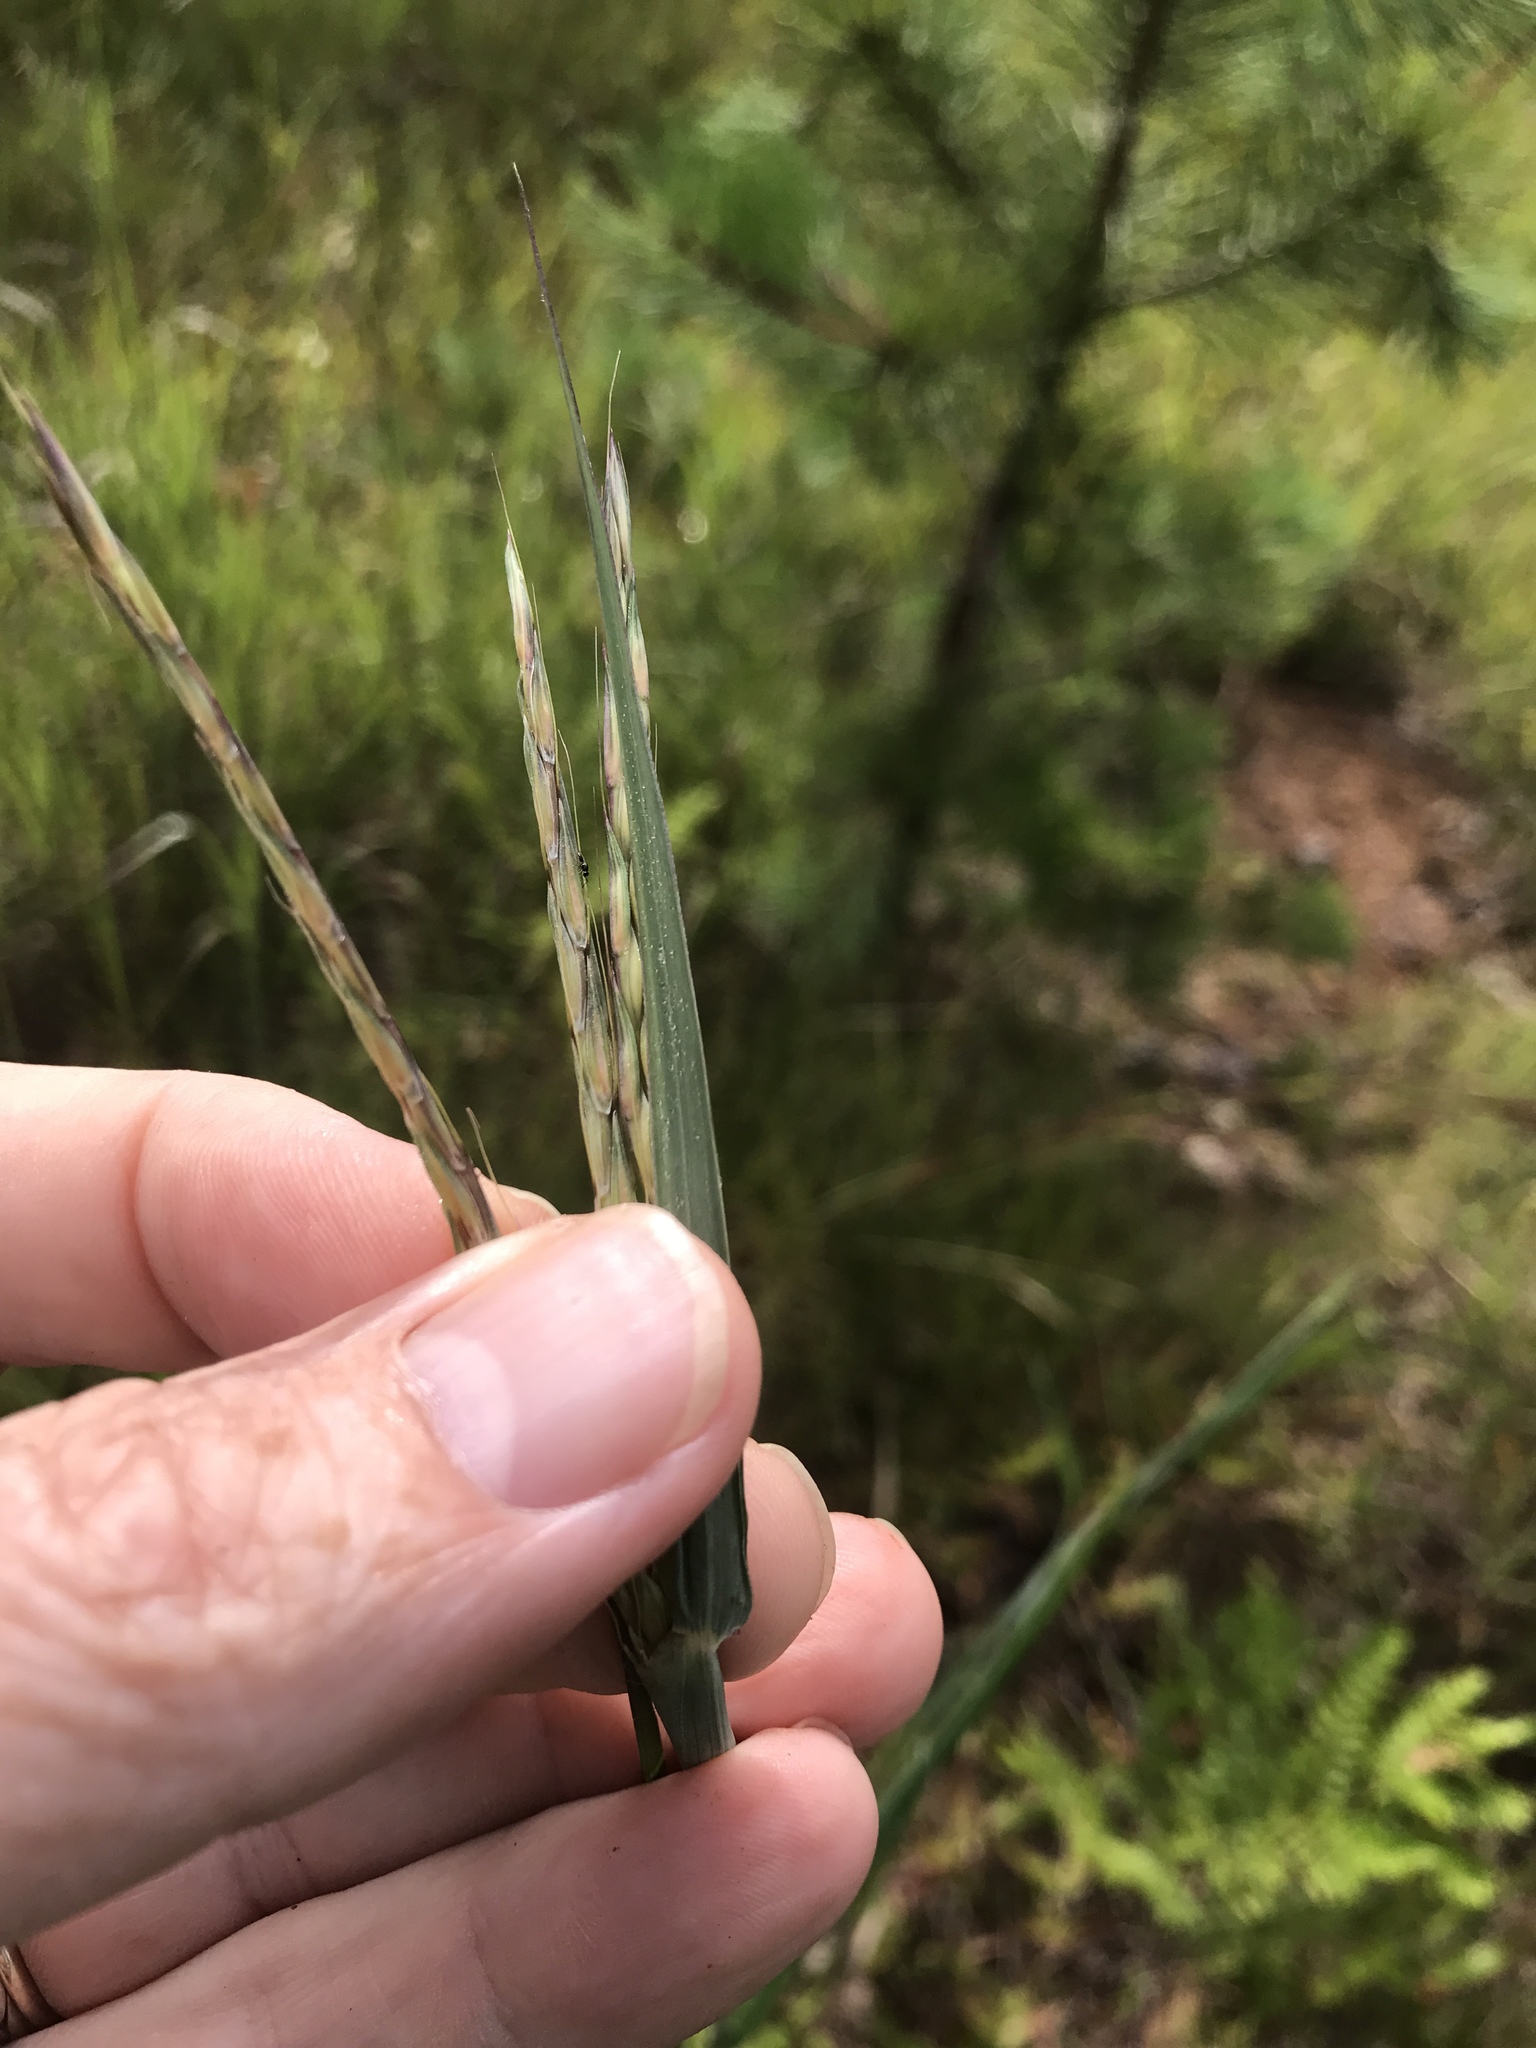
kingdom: Plantae
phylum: Tracheophyta
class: Liliopsida
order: Poales
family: Poaceae
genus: Andropogon
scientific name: Andropogon gerardi
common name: Big bluestem
